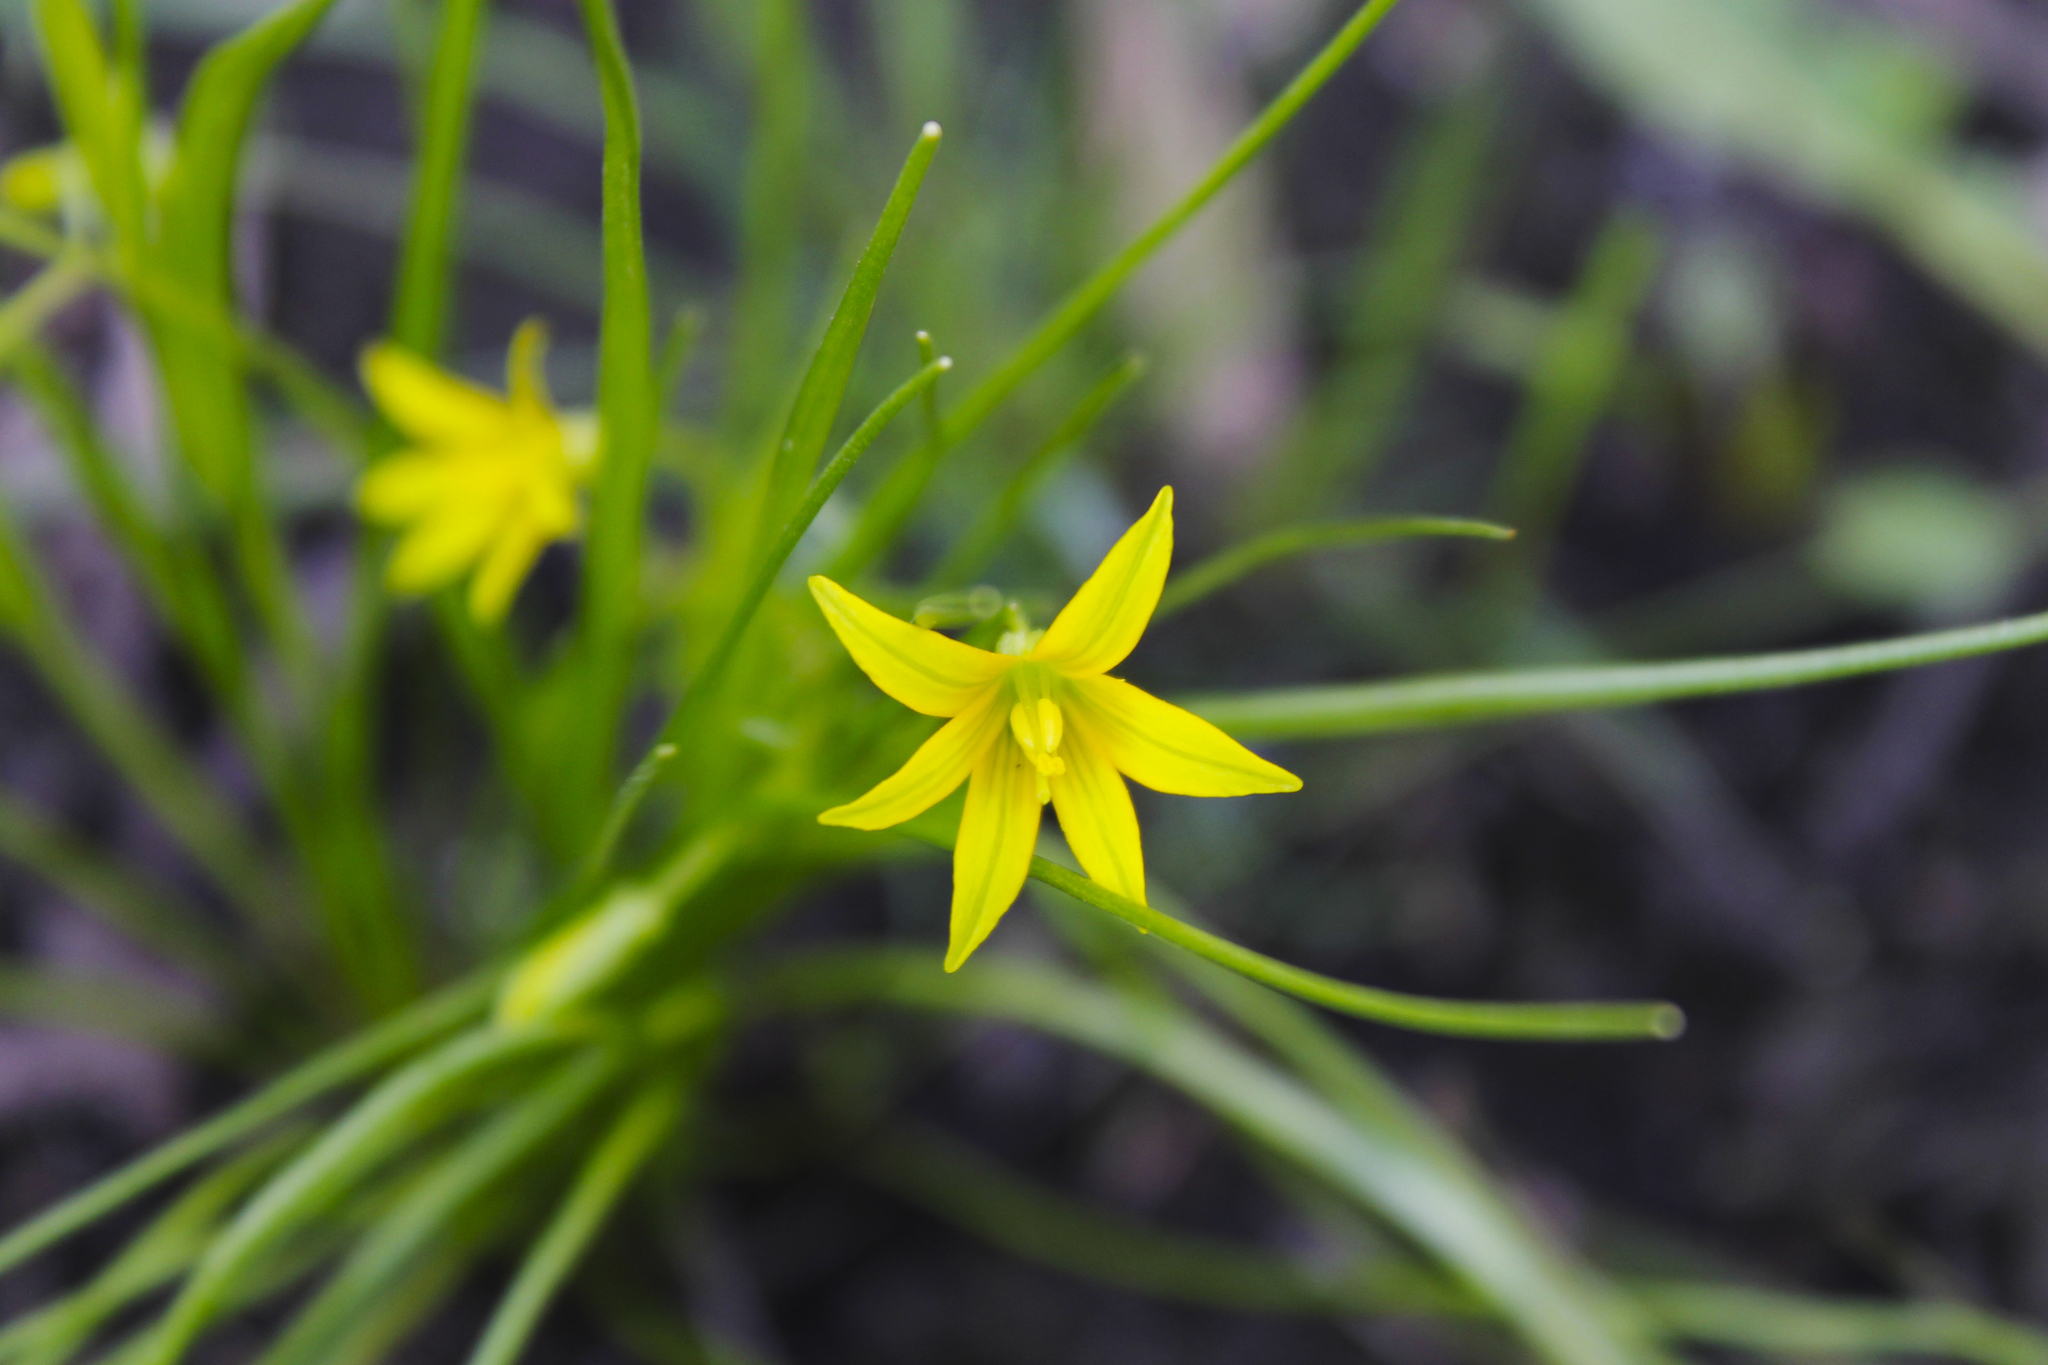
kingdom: Plantae
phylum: Tracheophyta
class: Liliopsida
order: Liliales
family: Liliaceae
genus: Gagea
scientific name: Gagea minima
